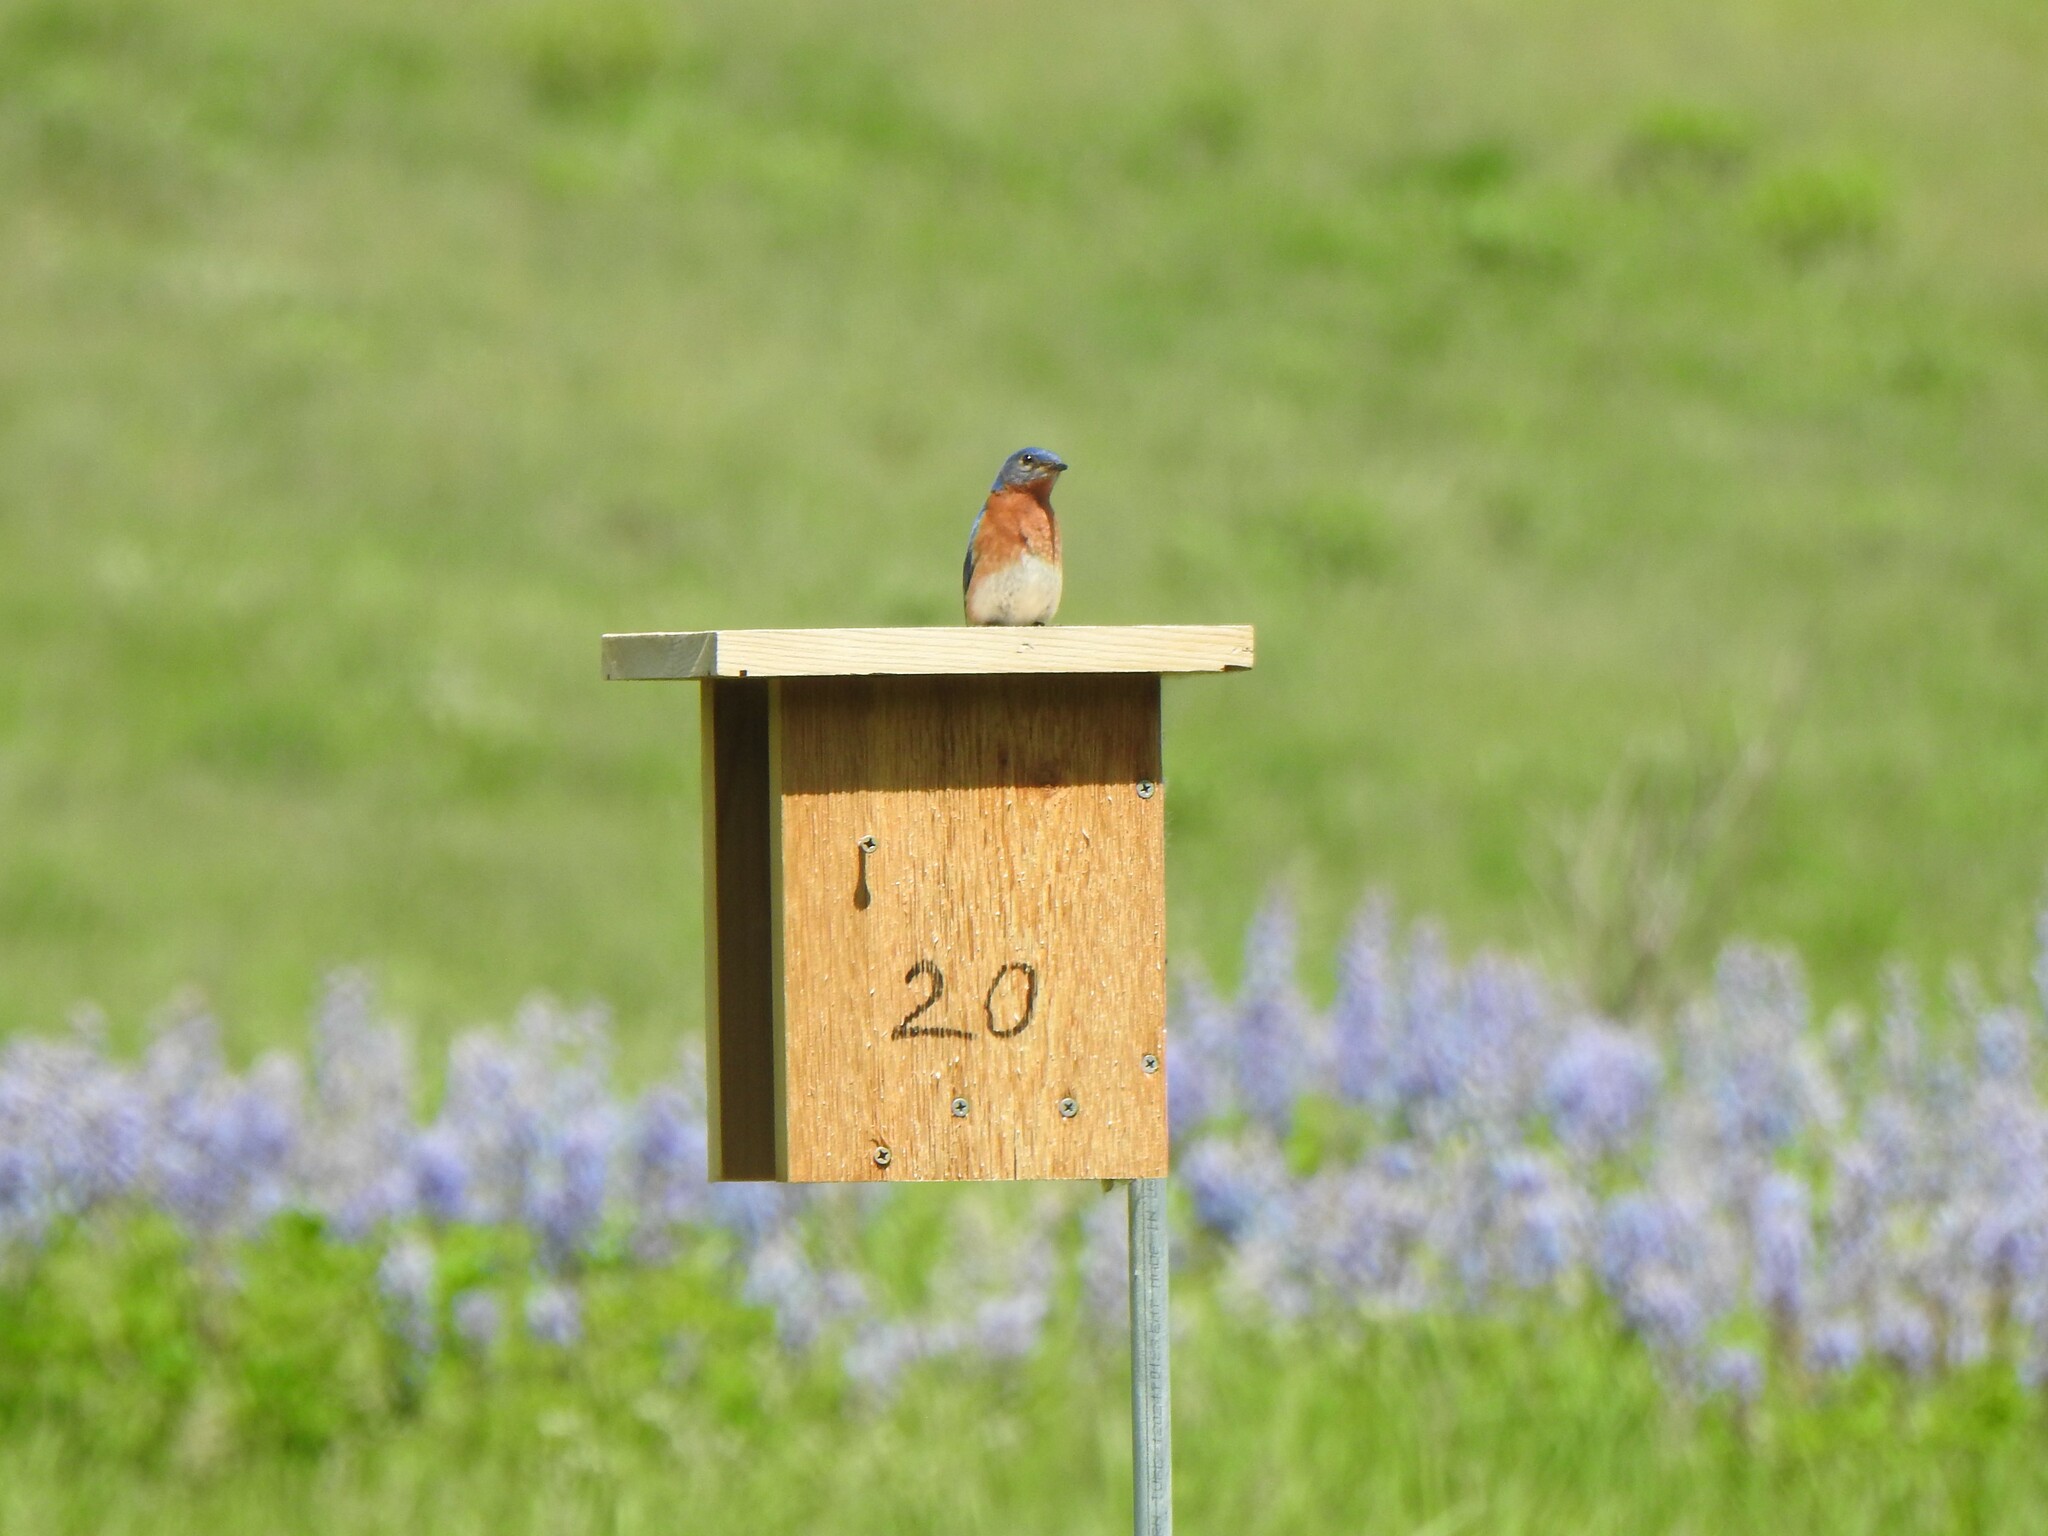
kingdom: Animalia
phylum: Chordata
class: Aves
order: Passeriformes
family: Turdidae
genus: Sialia
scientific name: Sialia sialis
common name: Eastern bluebird
